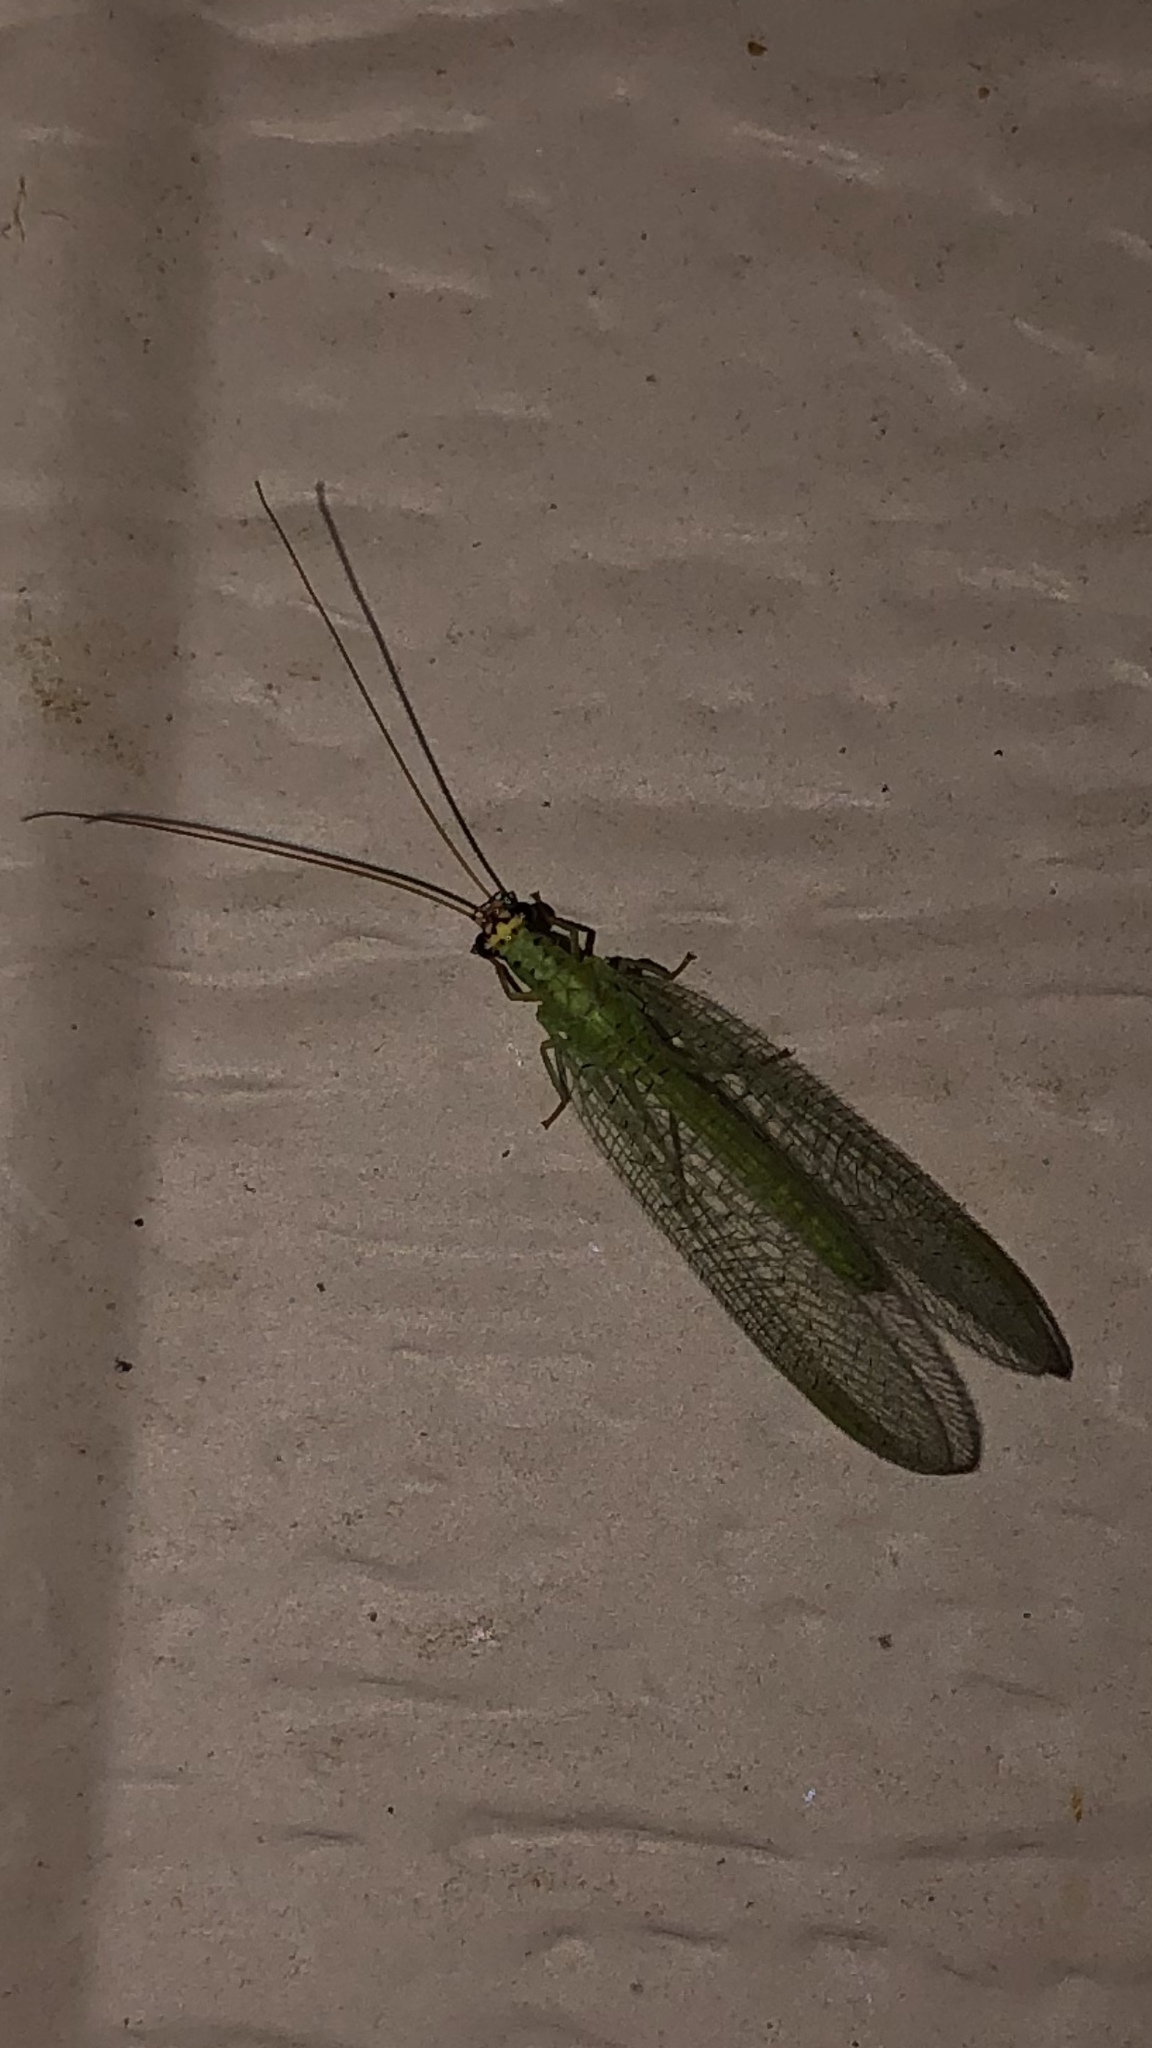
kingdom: Animalia
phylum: Arthropoda
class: Insecta
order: Neuroptera
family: Chrysopidae
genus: Chrysopa
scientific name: Chrysopa oculata
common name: Golden-eyed lacewing
